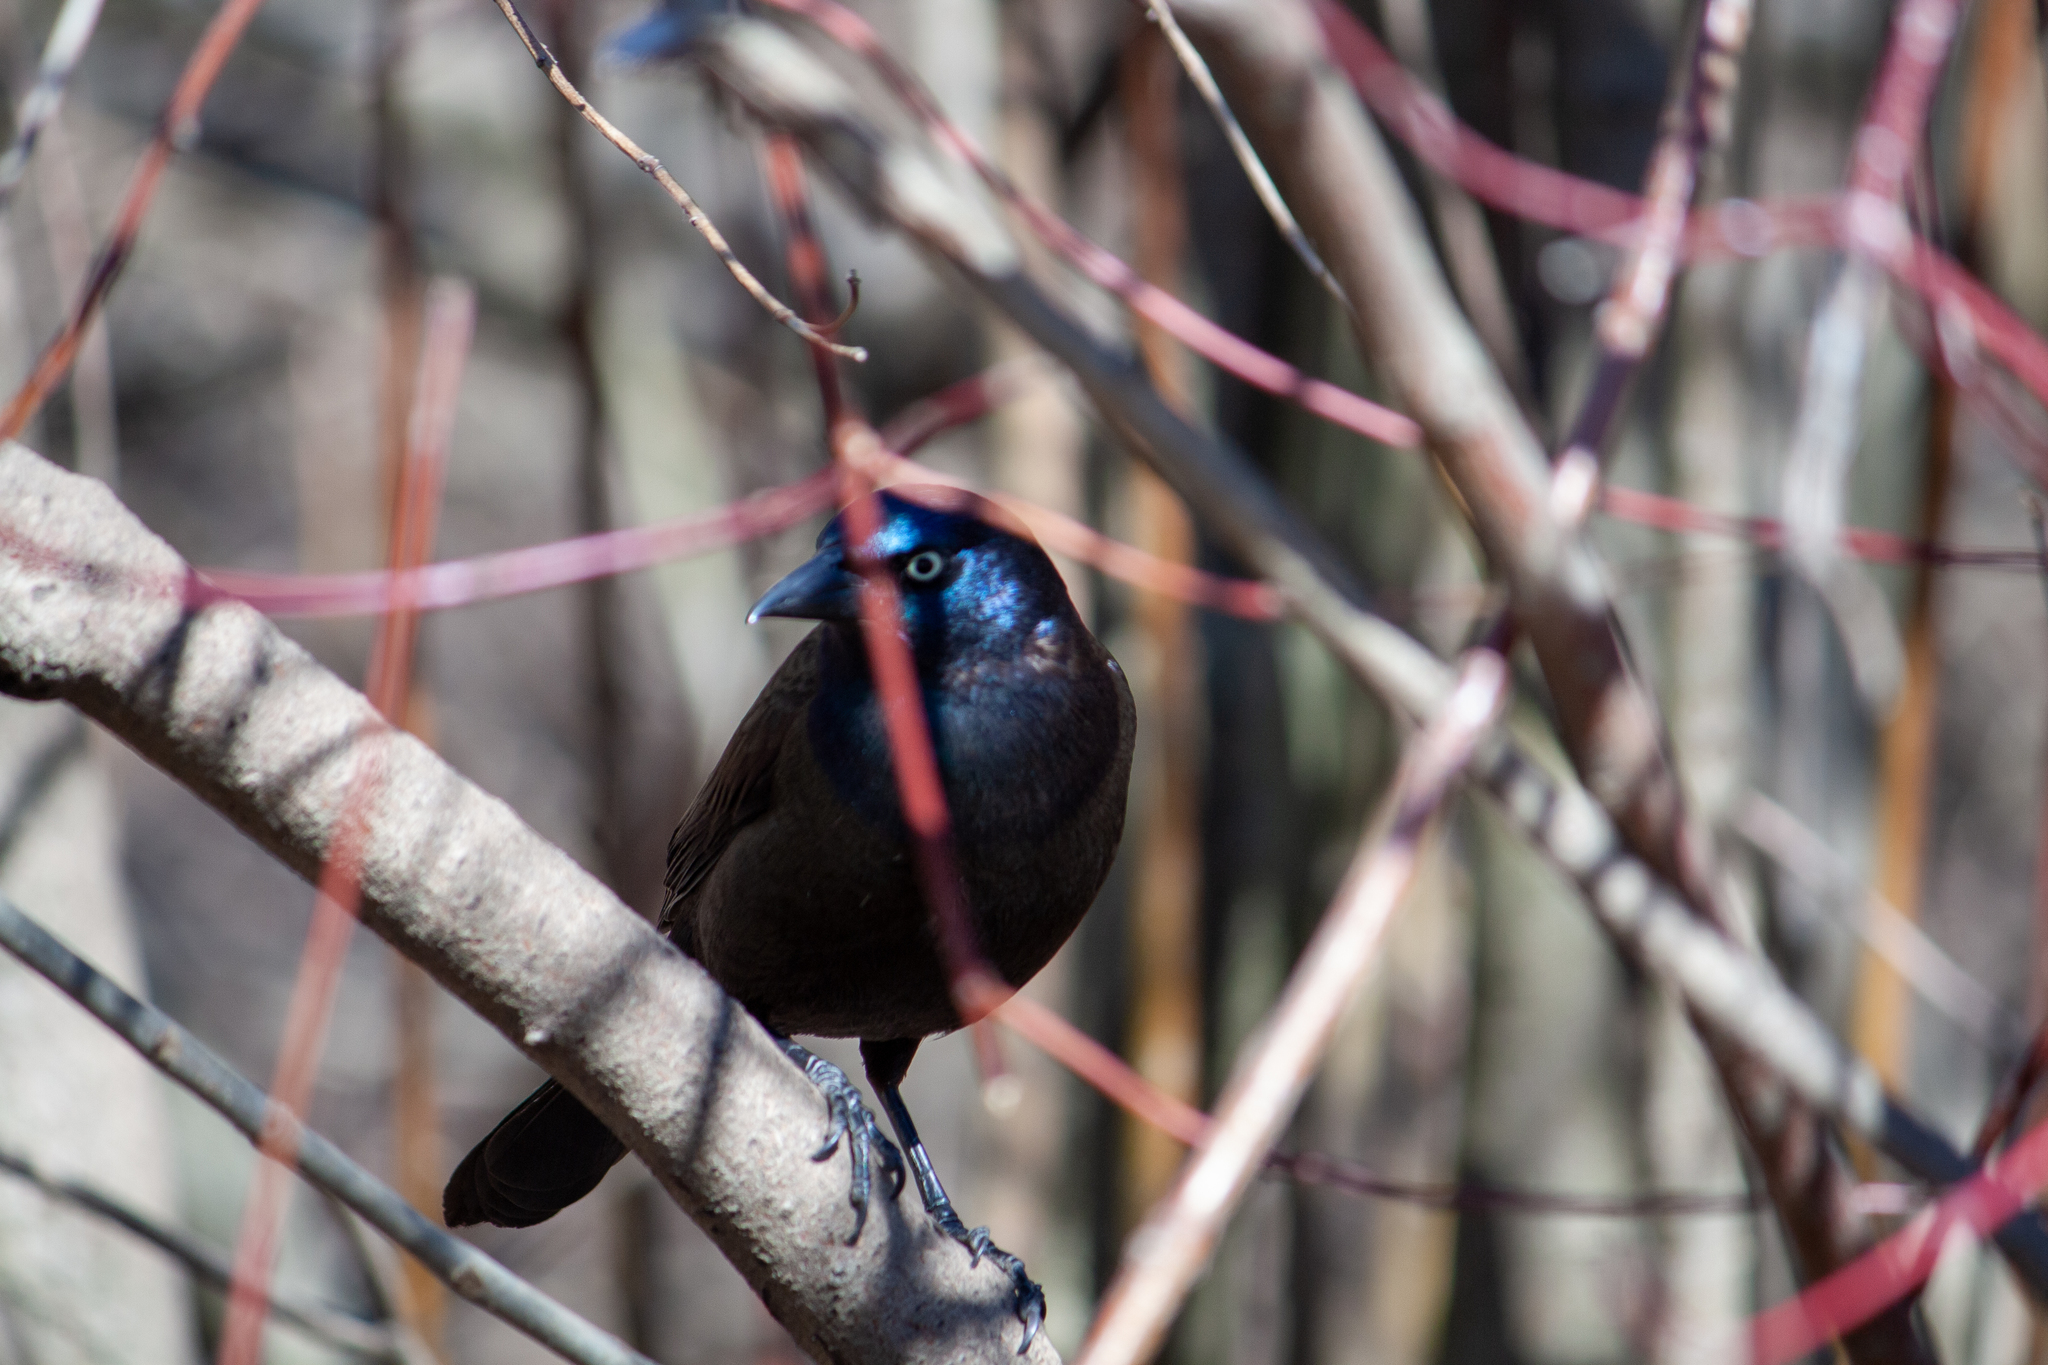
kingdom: Animalia
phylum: Chordata
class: Aves
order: Passeriformes
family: Icteridae
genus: Quiscalus
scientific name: Quiscalus quiscula
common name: Common grackle
